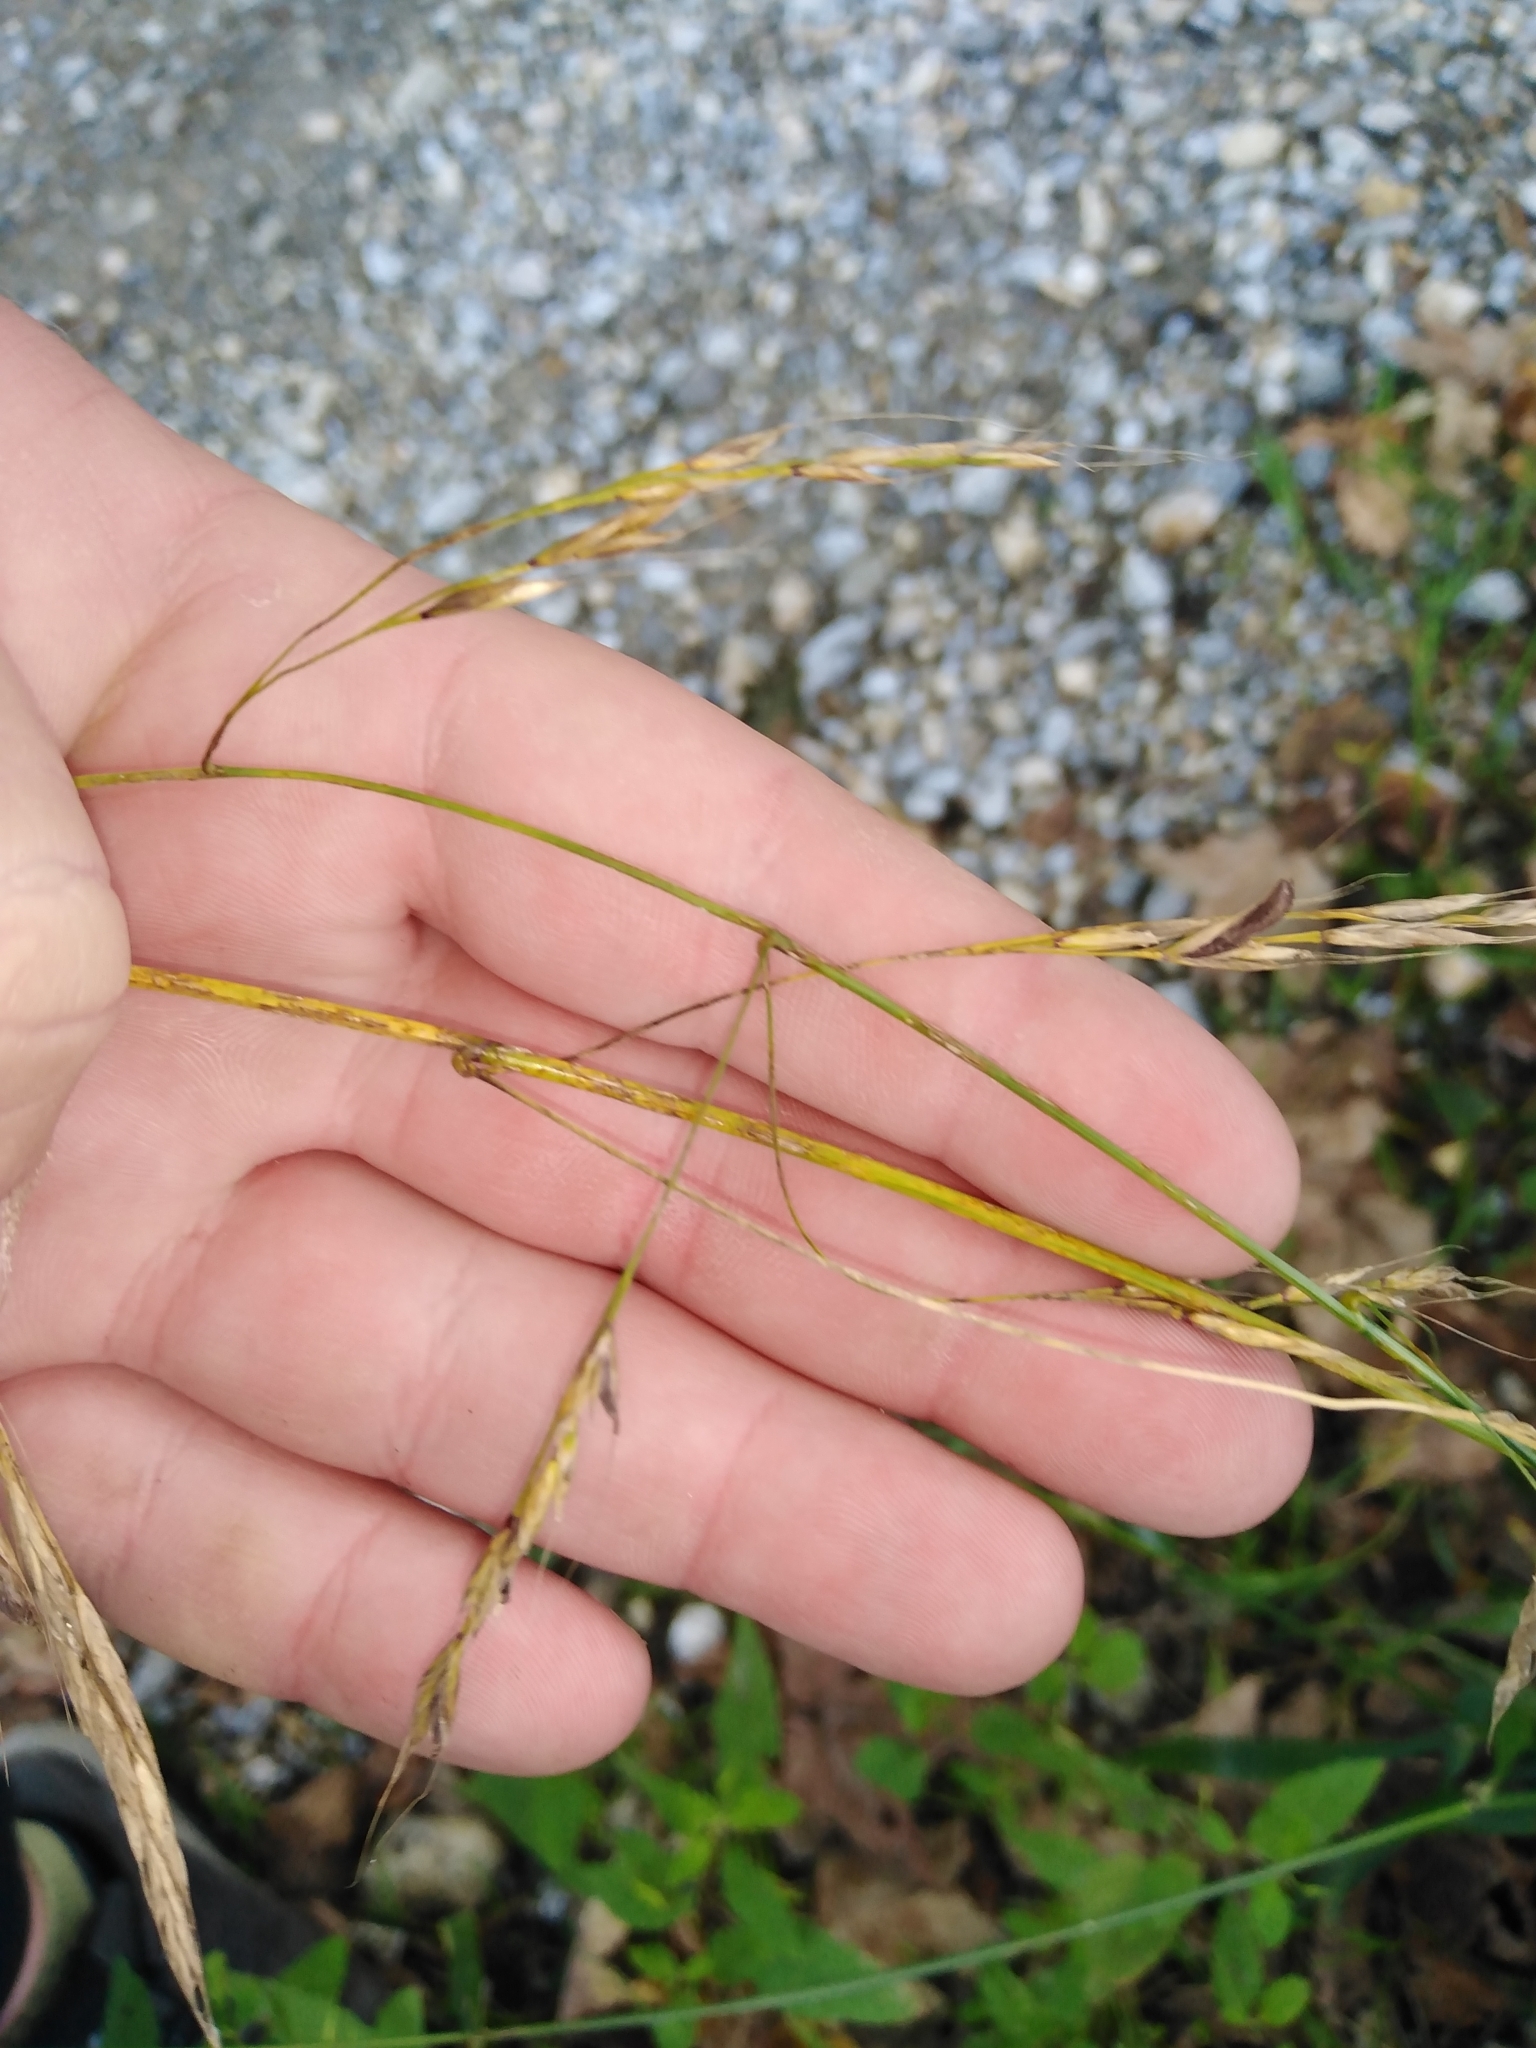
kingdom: Plantae
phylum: Tracheophyta
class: Liliopsida
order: Poales
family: Poaceae
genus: Lolium
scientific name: Lolium giganteum
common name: Giant fescue
